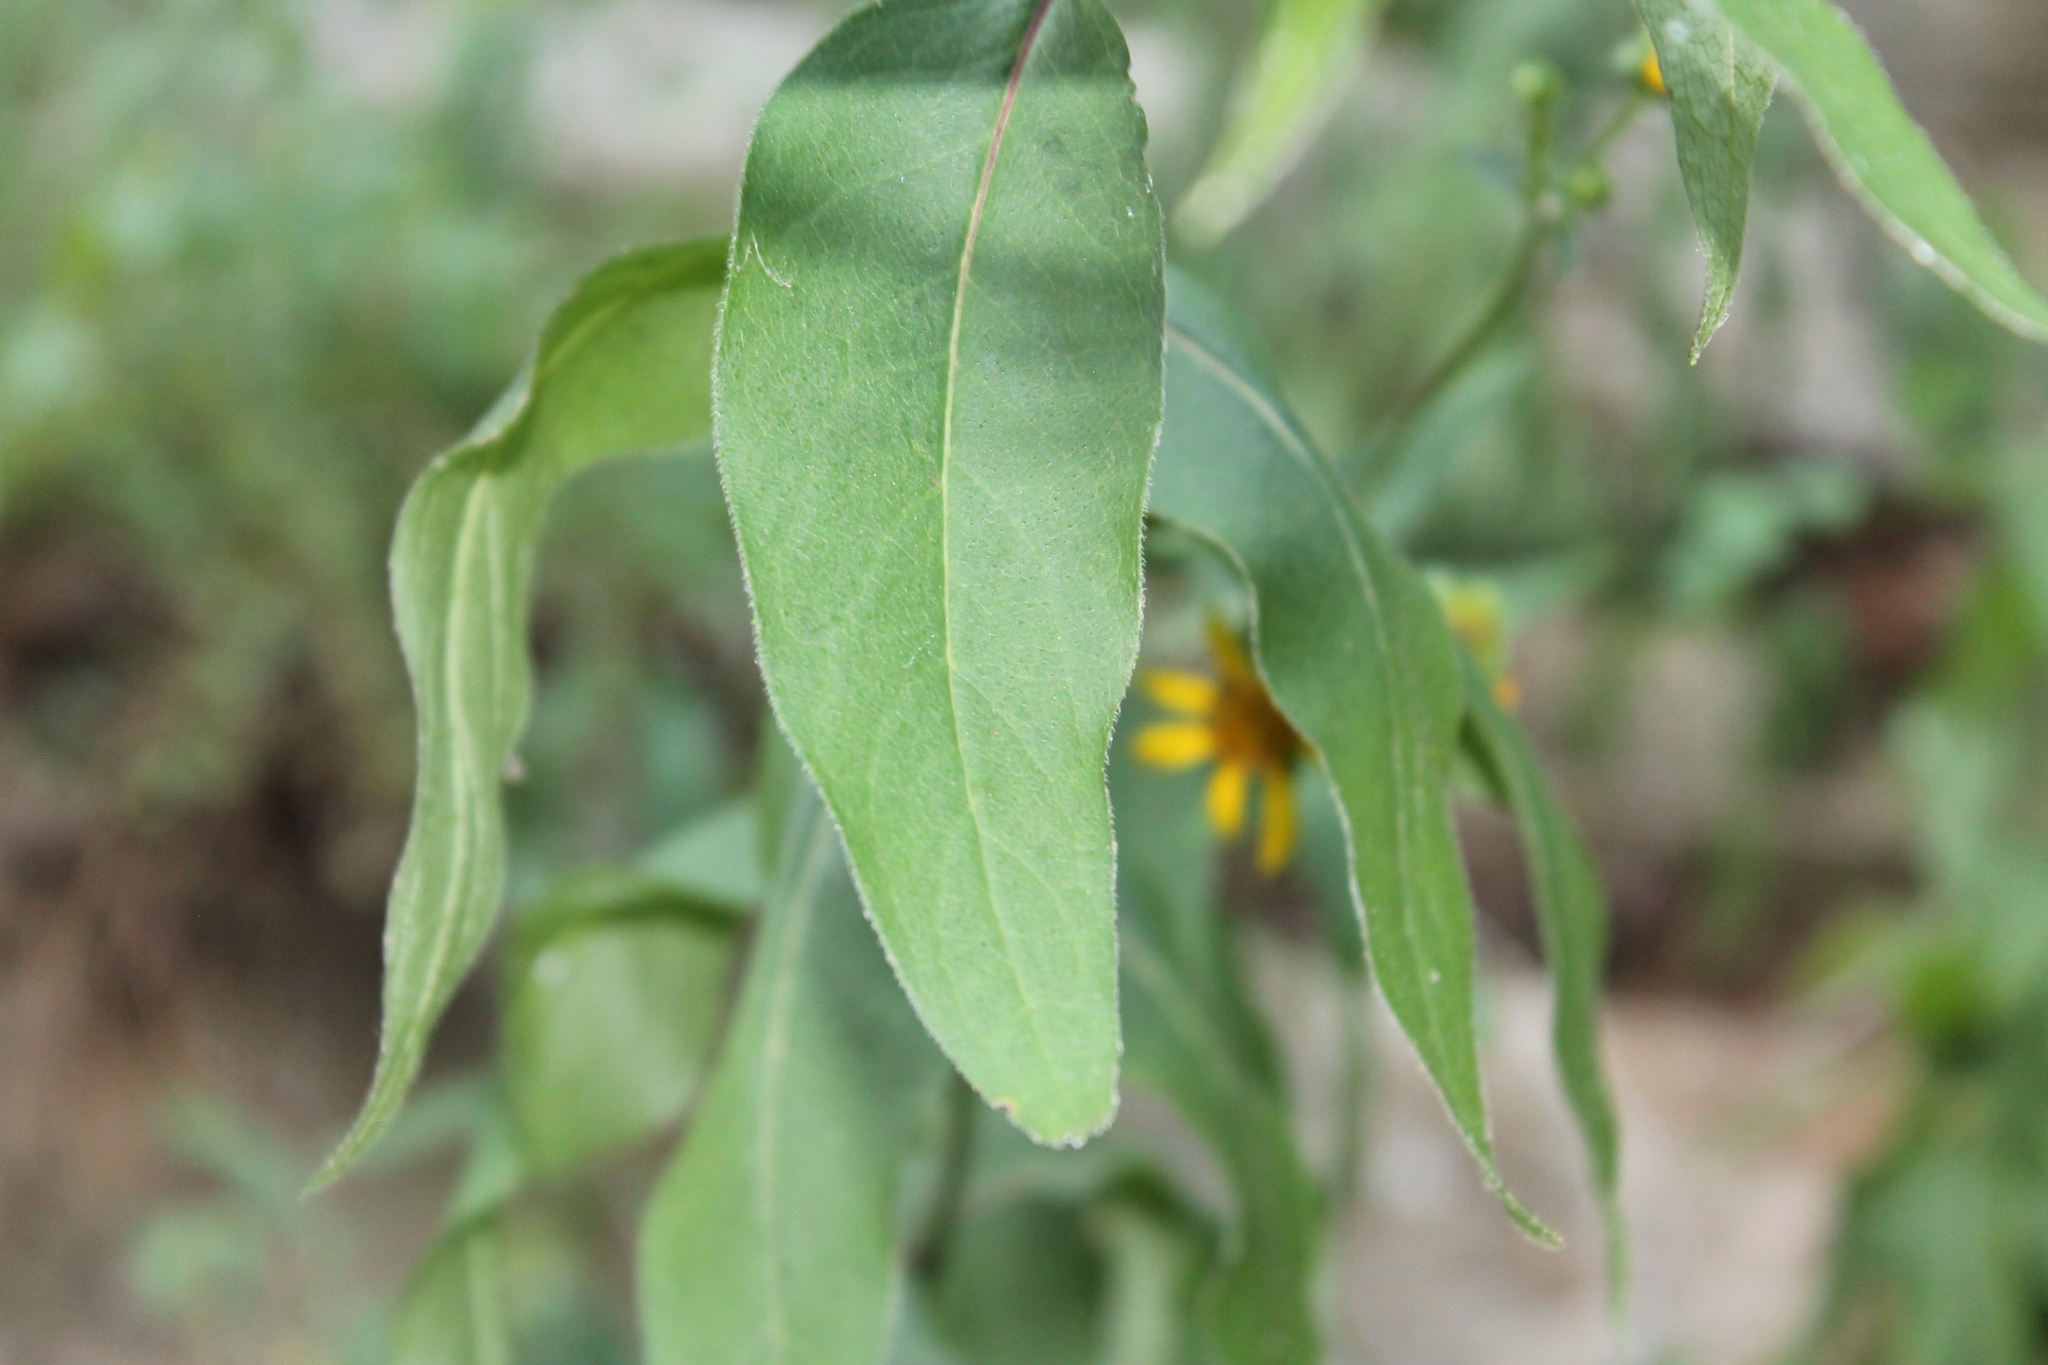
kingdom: Plantae
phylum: Tracheophyta
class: Magnoliopsida
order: Asterales
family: Asteraceae
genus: Silphium
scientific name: Silphium asteriscus
